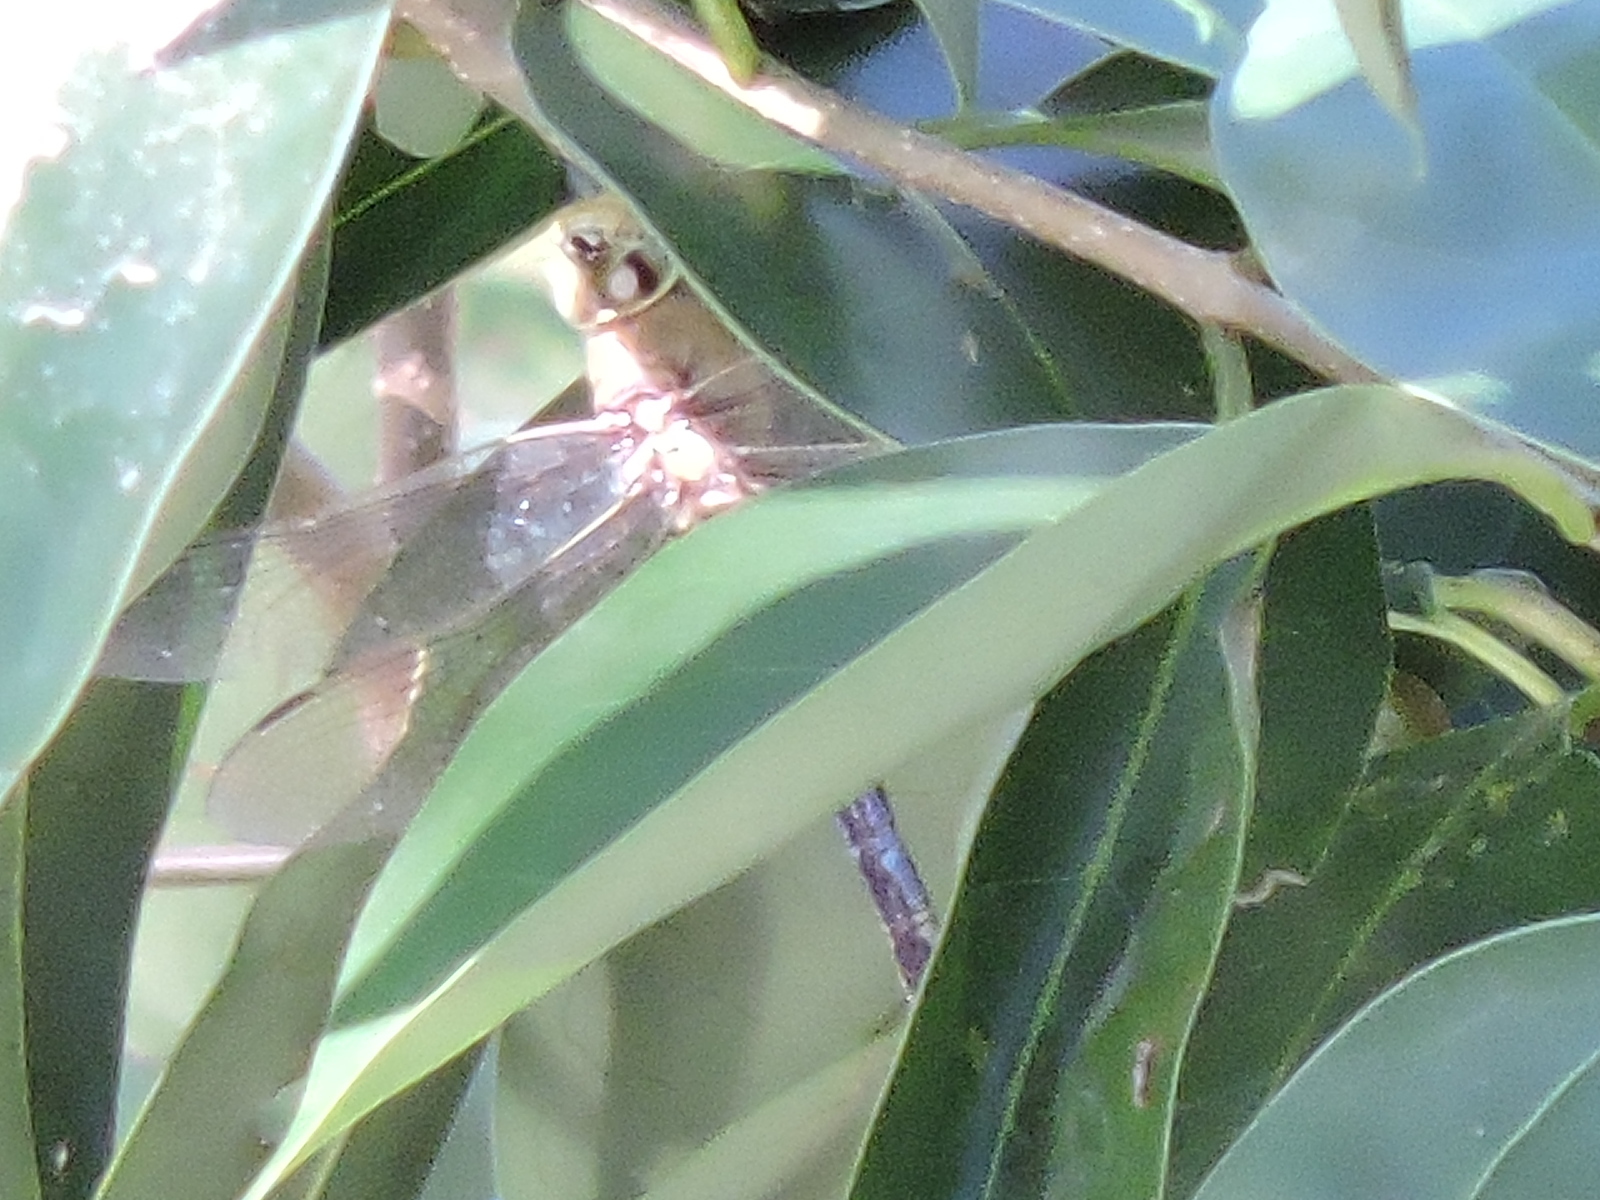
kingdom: Animalia
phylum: Arthropoda
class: Insecta
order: Odonata
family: Aeshnidae
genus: Anax
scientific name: Anax junius
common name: Common green darner
